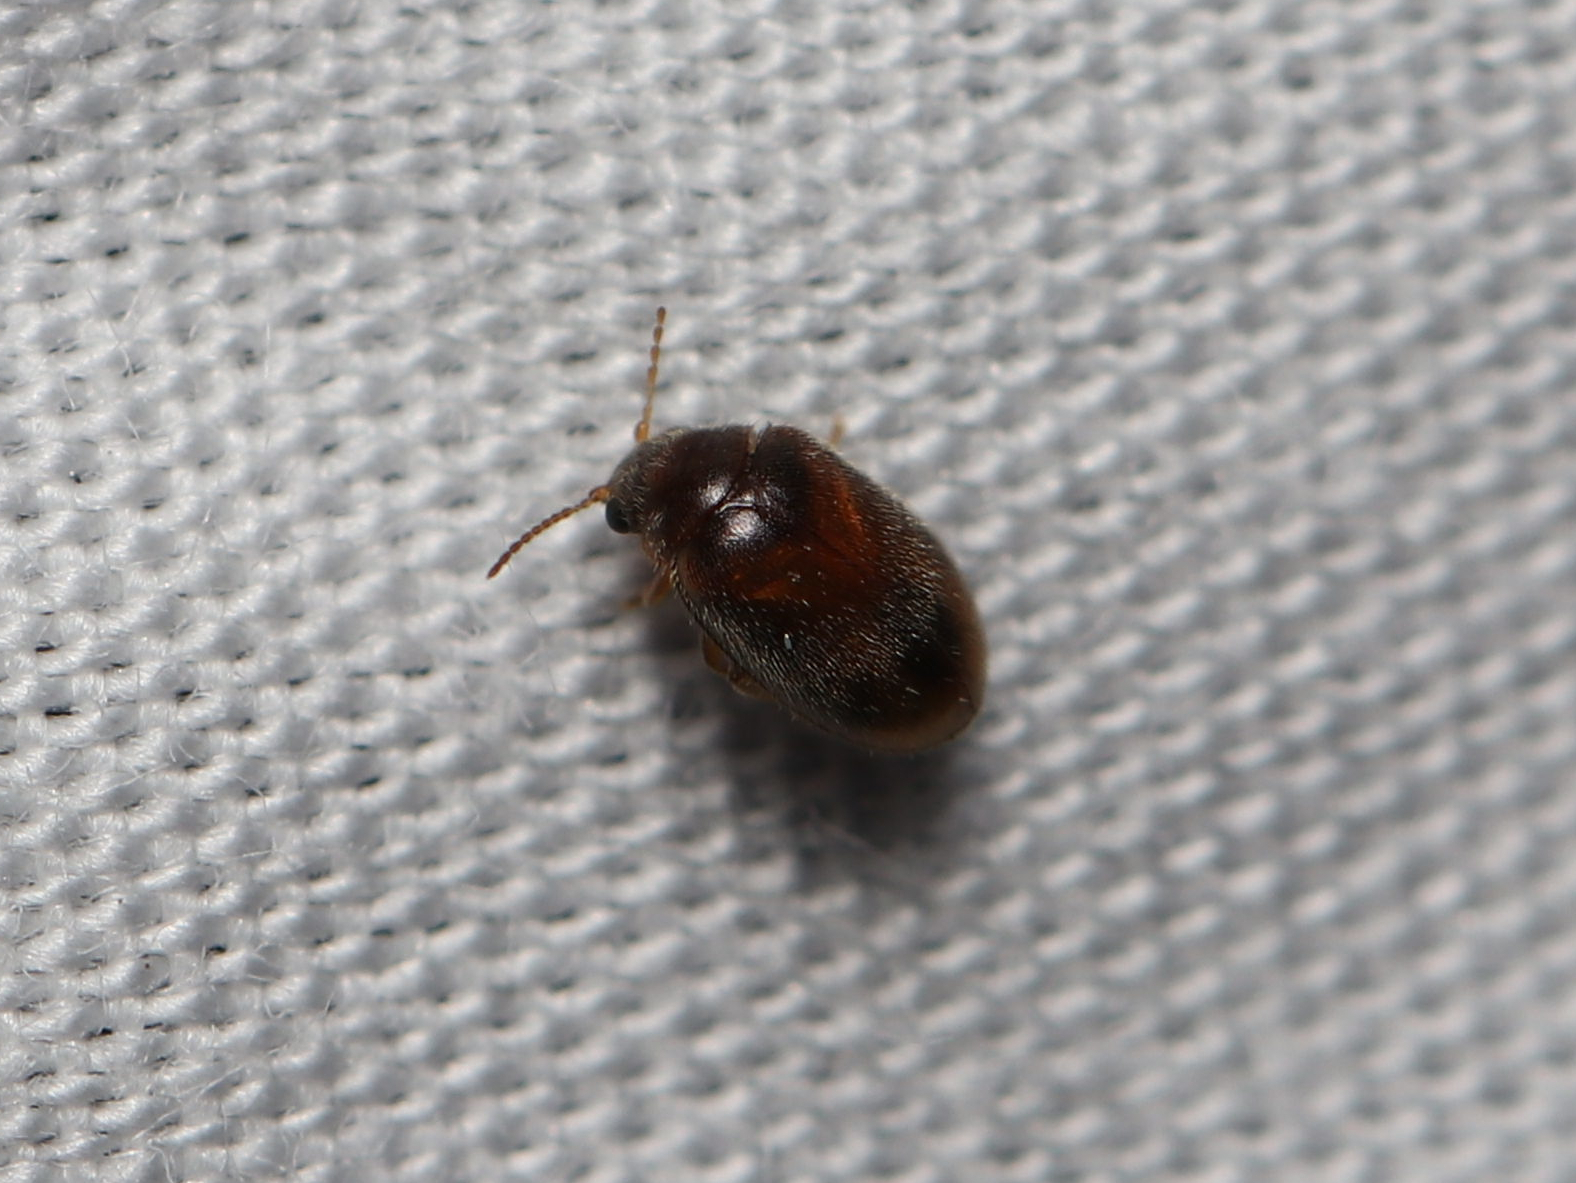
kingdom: Animalia
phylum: Arthropoda
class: Insecta
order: Coleoptera
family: Scirtidae
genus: Contacyphon
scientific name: Contacyphon
